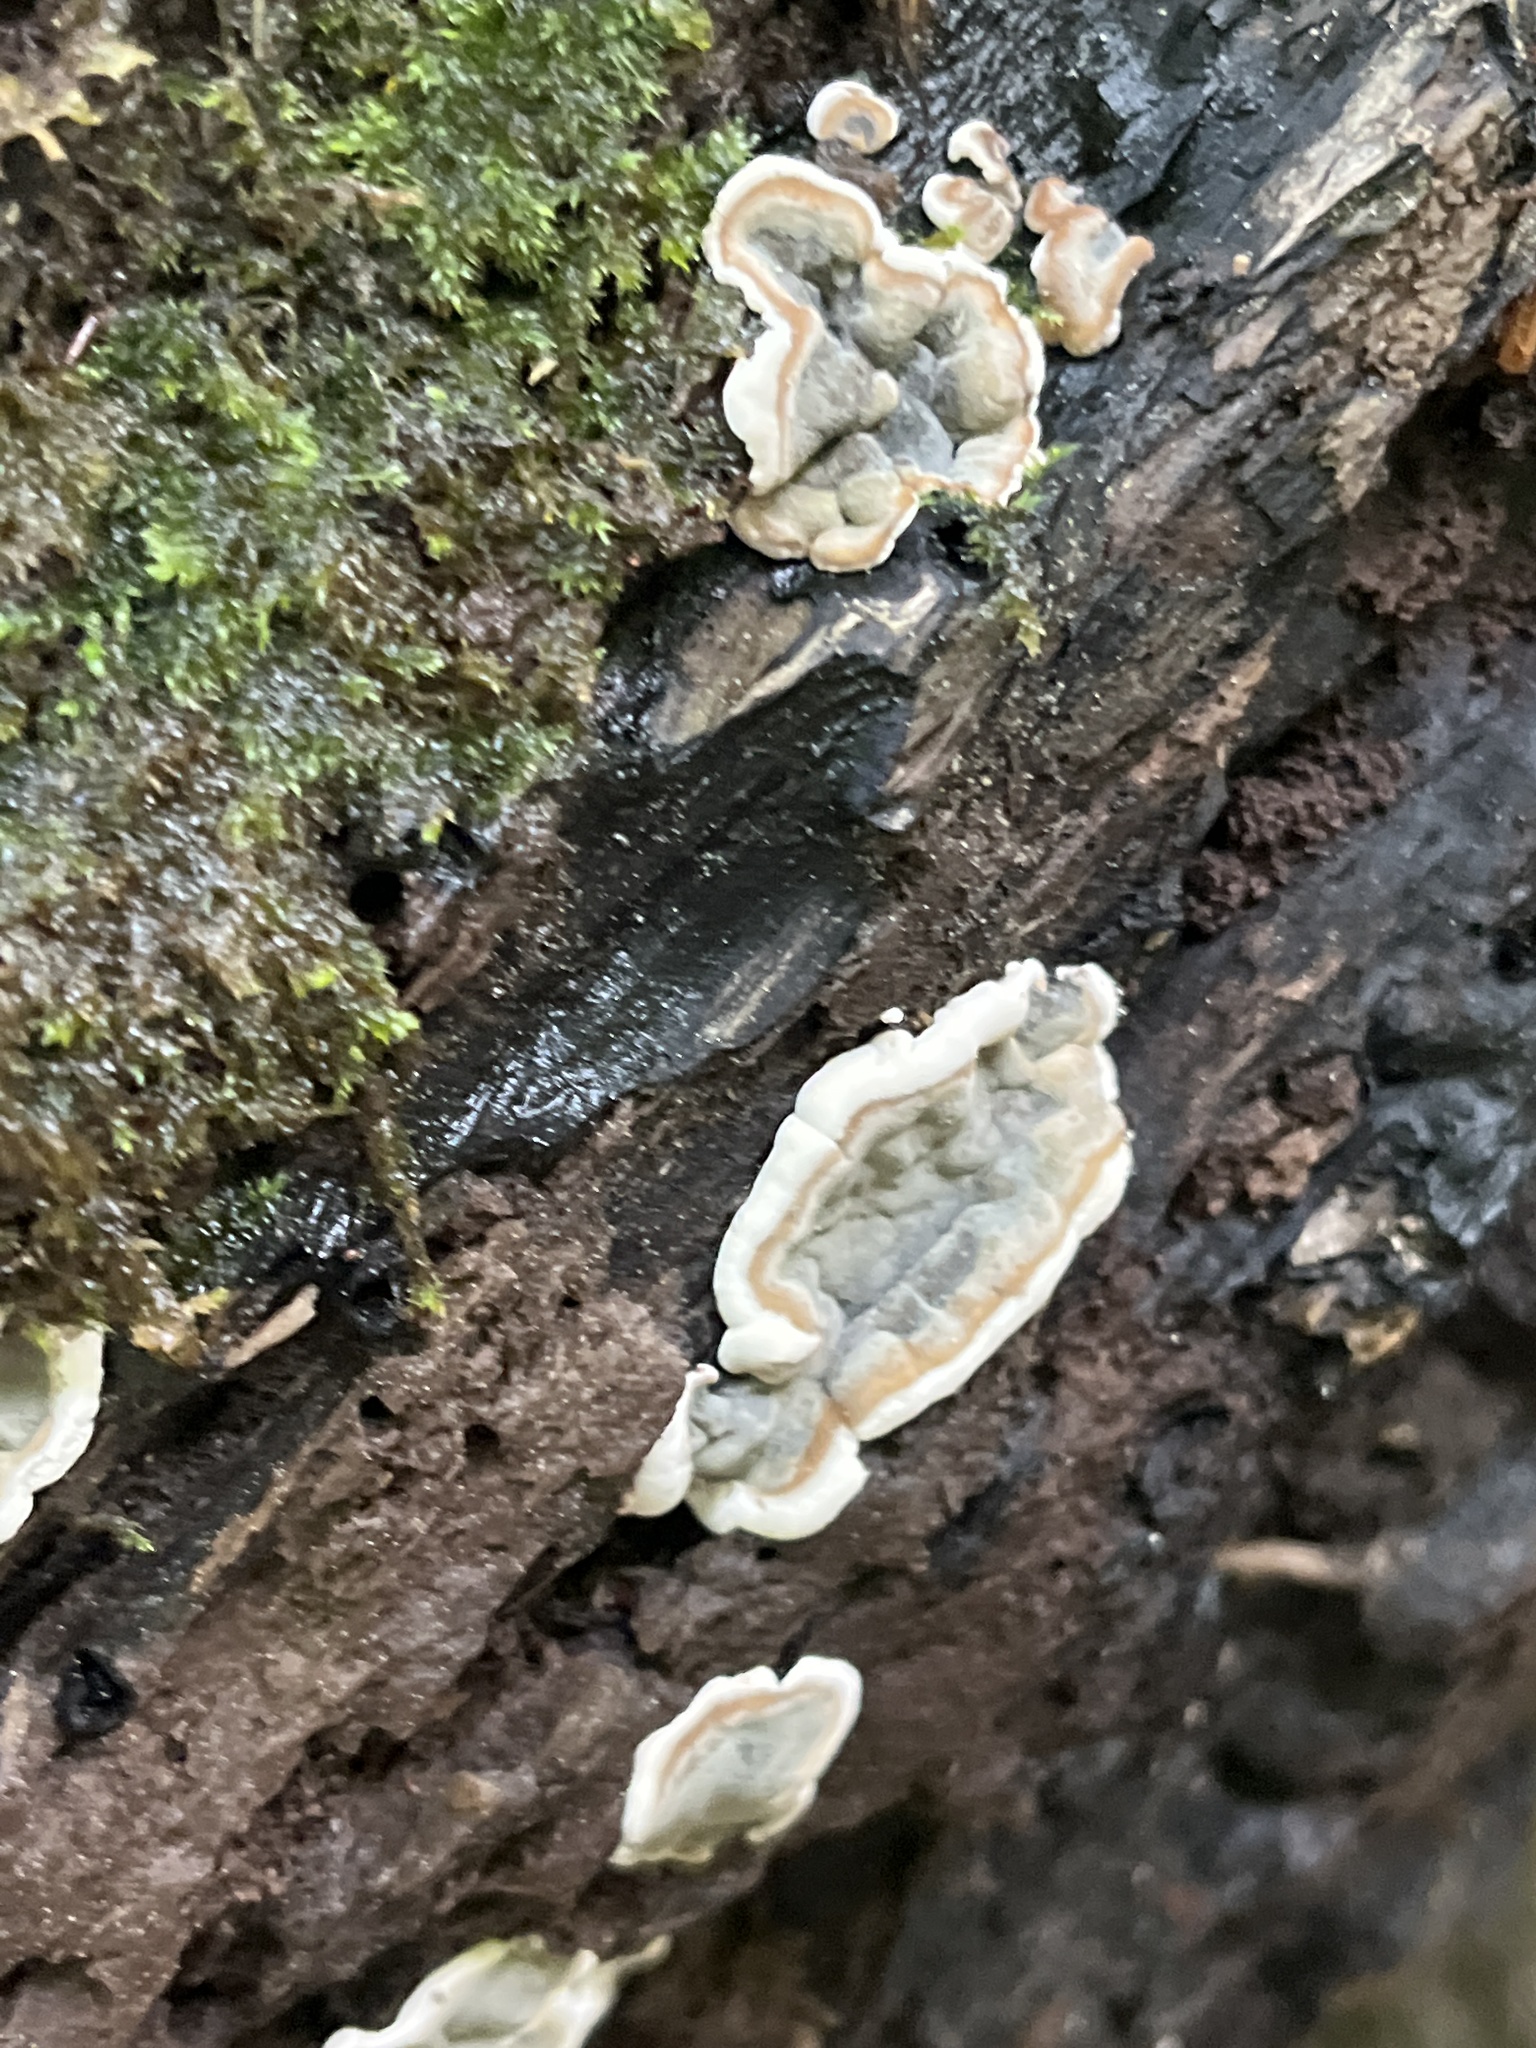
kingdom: Fungi
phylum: Ascomycota
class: Sordariomycetes
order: Xylariales
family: Xylariaceae
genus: Kretzschmaria
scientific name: Kretzschmaria deusta
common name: Brittle cinder
